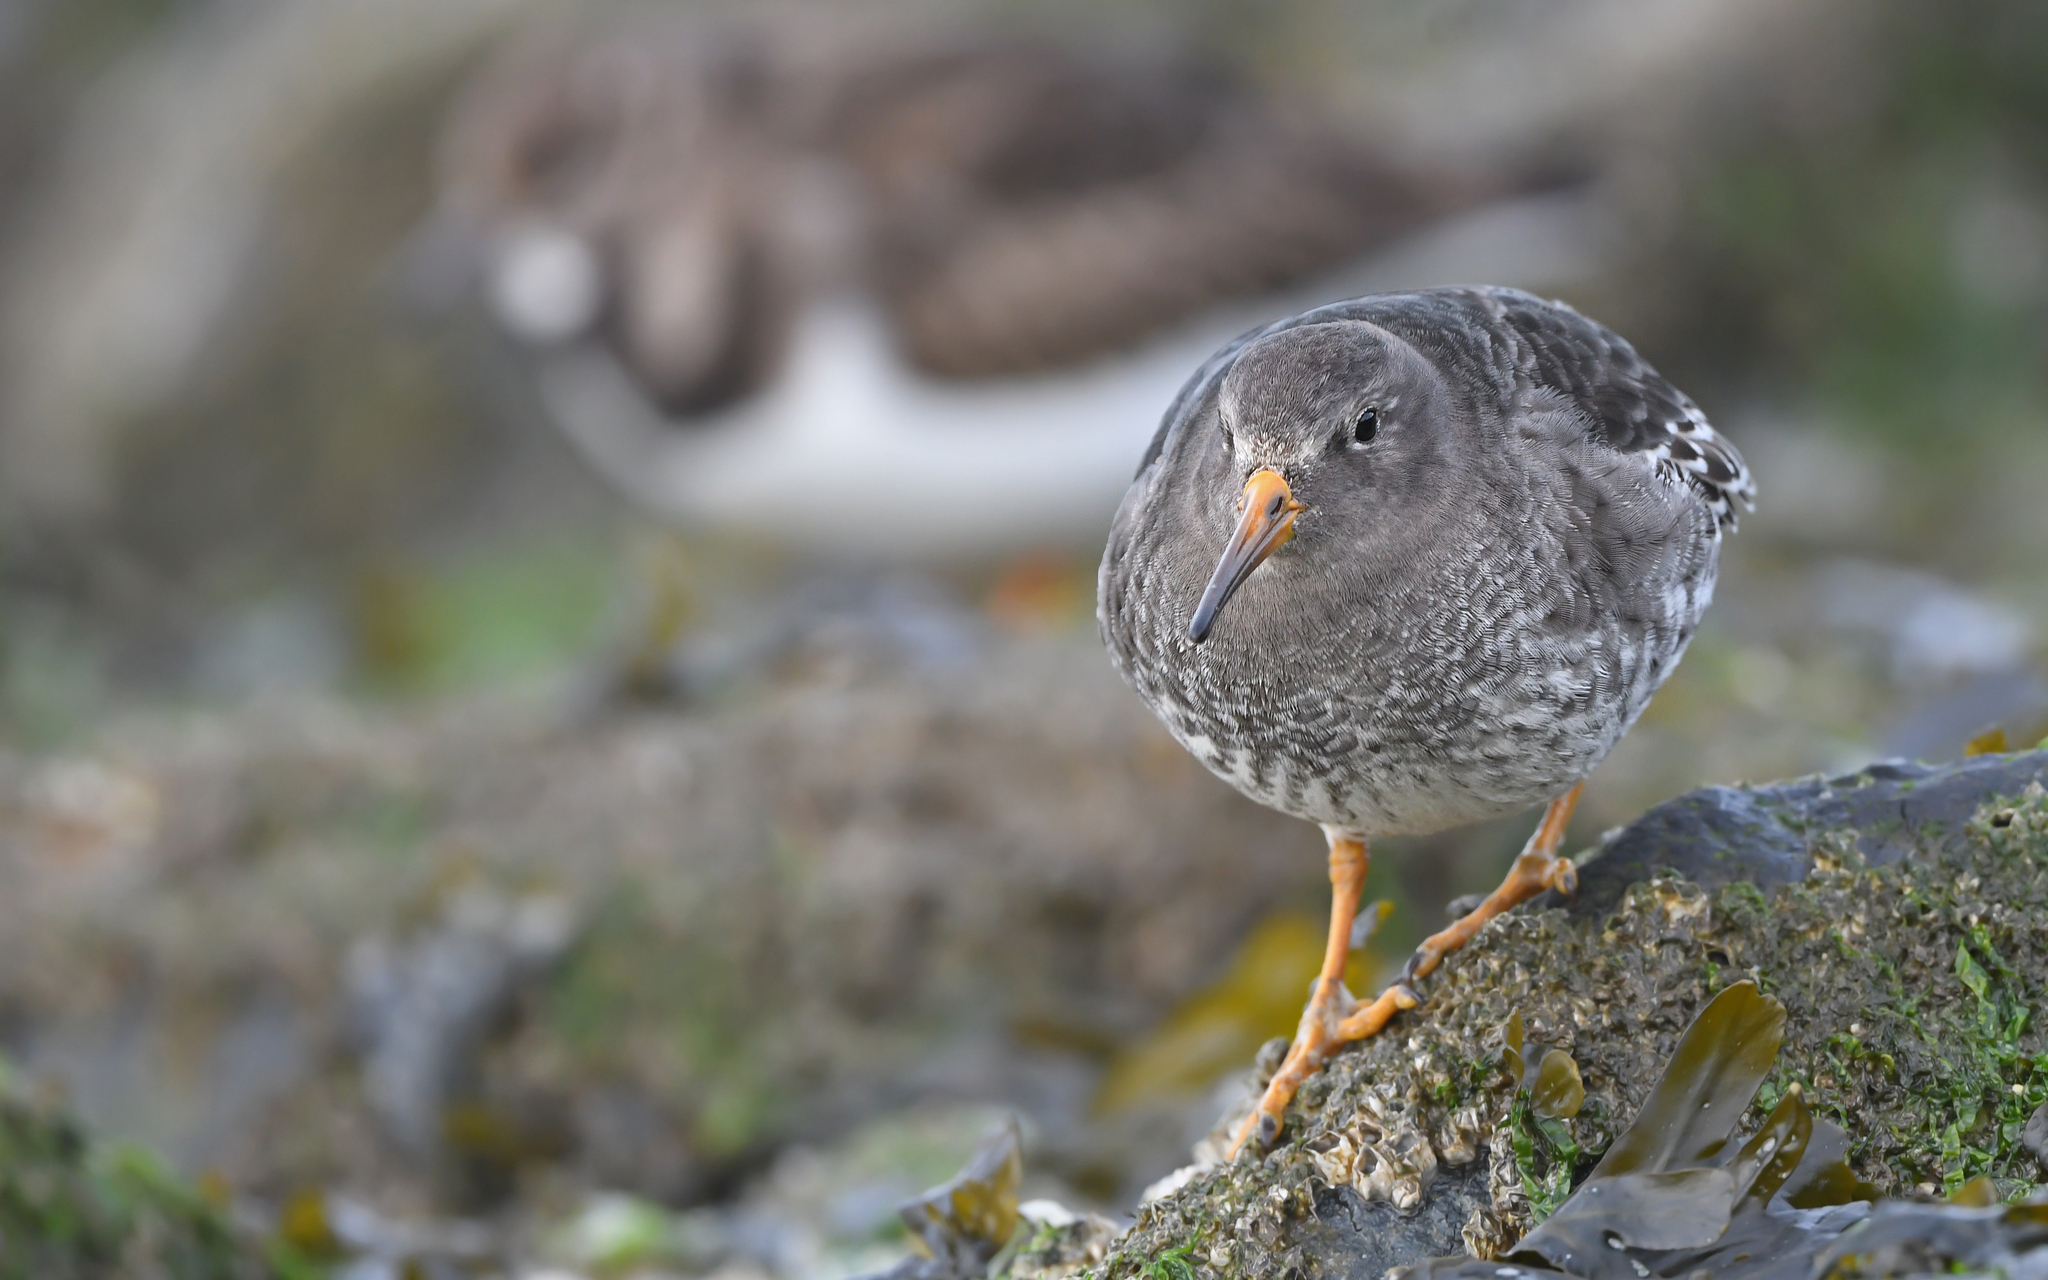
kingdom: Animalia
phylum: Chordata
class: Aves
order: Charadriiformes
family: Scolopacidae
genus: Calidris
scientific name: Calidris maritima
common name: Purple sandpiper
